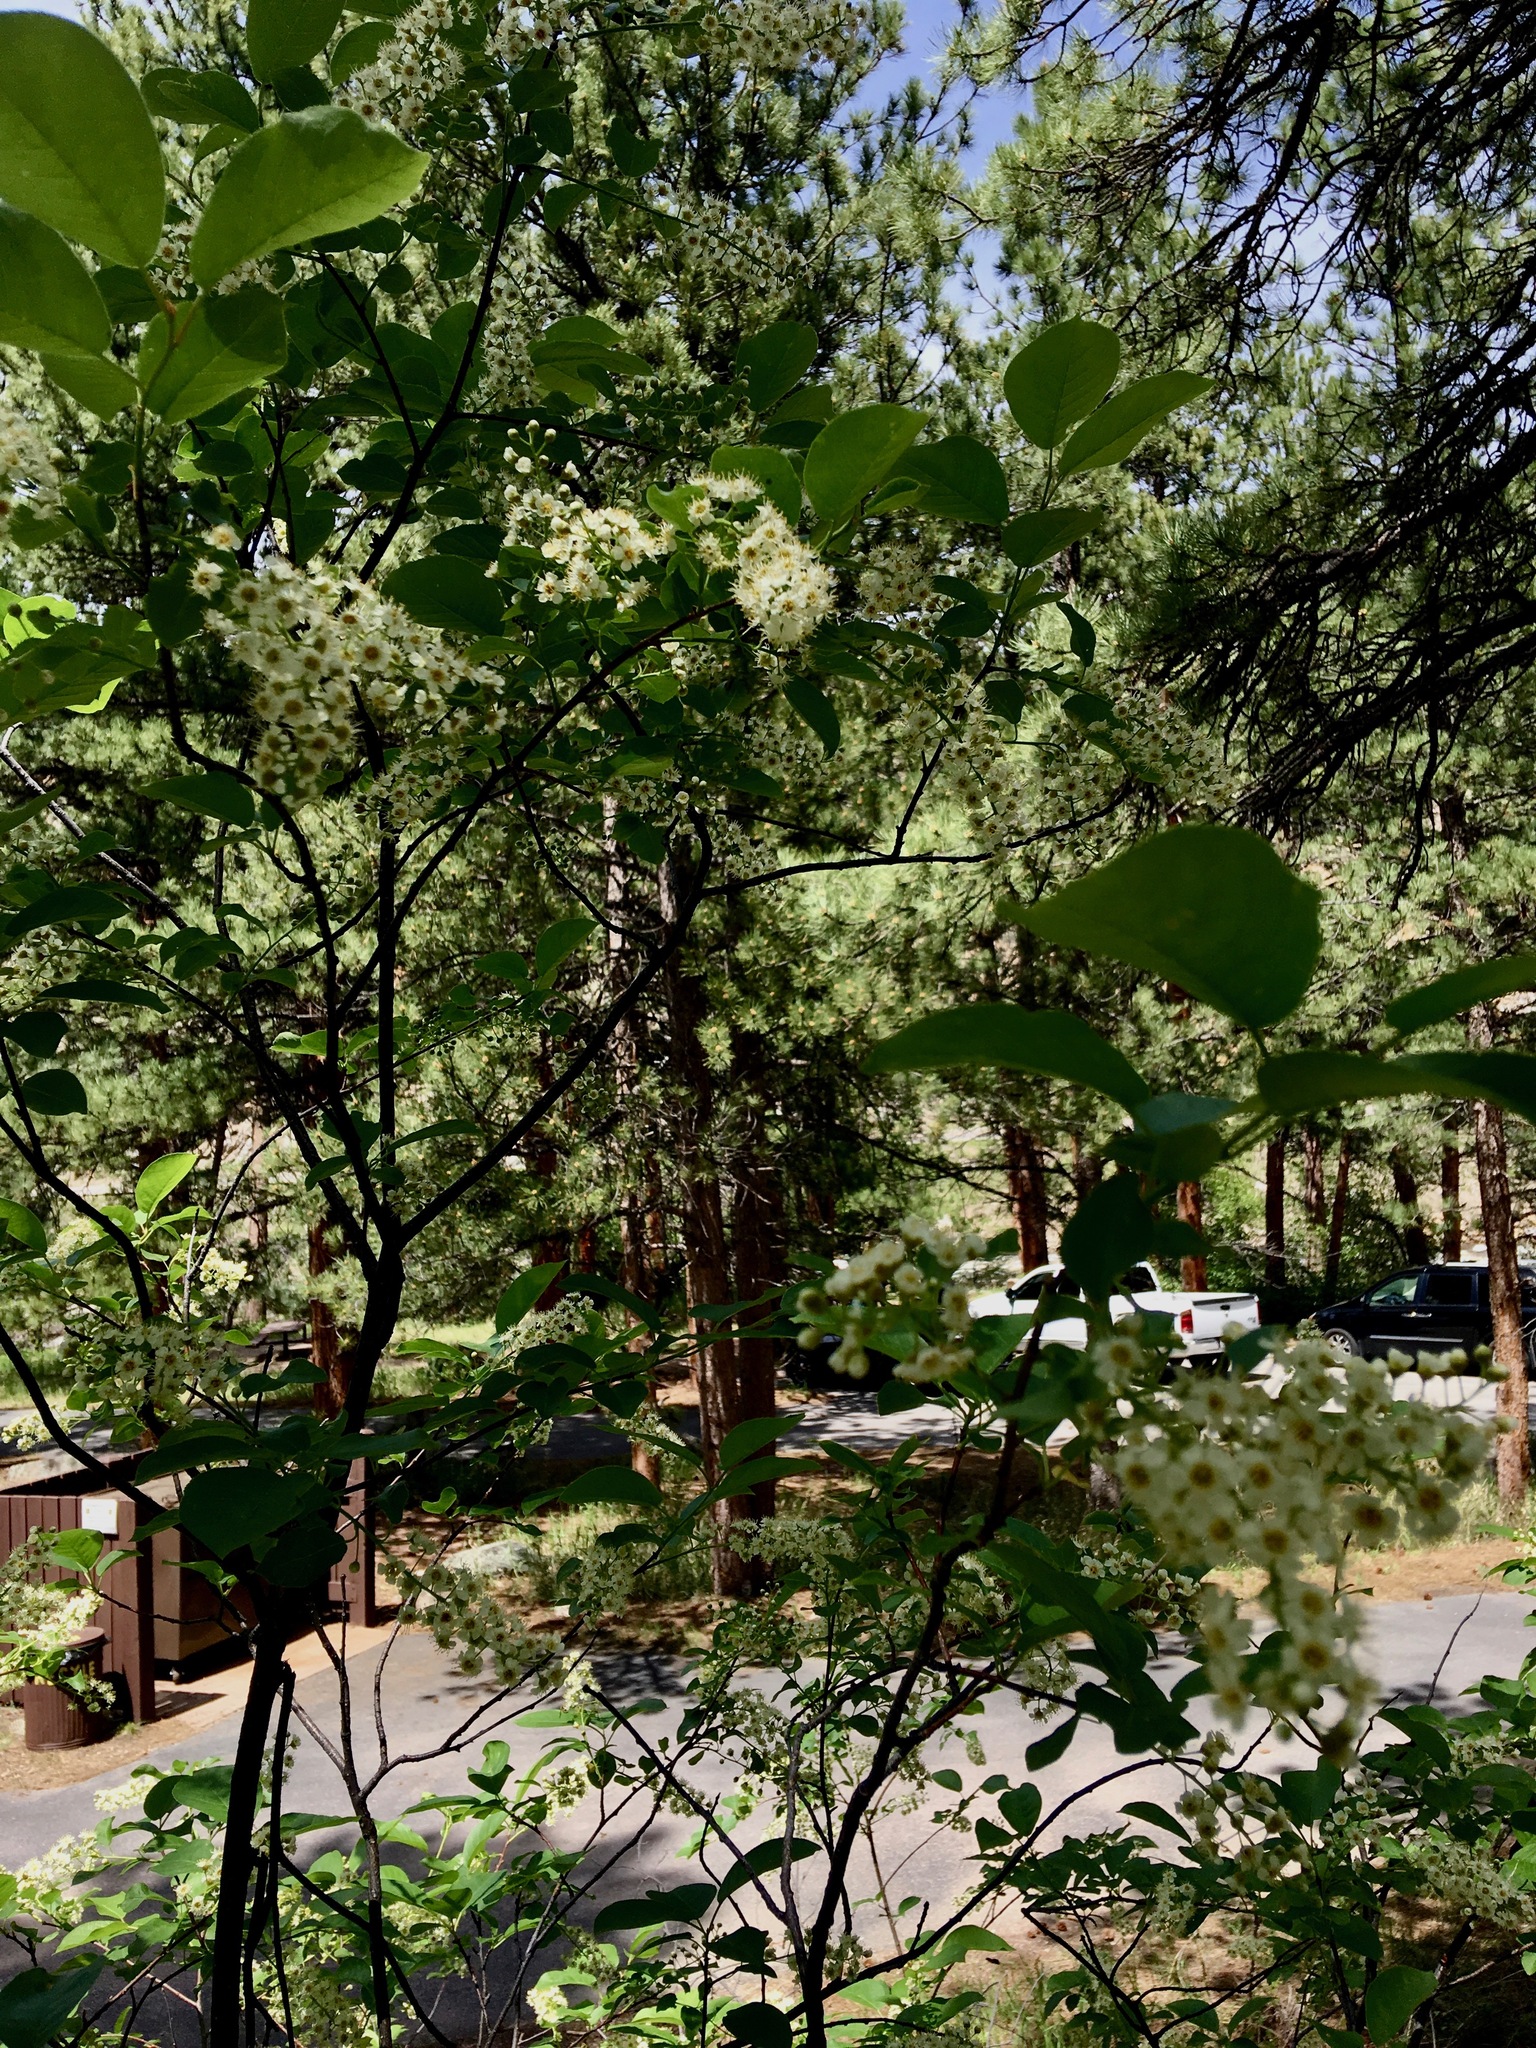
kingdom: Plantae
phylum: Tracheophyta
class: Magnoliopsida
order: Rosales
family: Rosaceae
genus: Prunus
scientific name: Prunus virginiana
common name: Chokecherry
